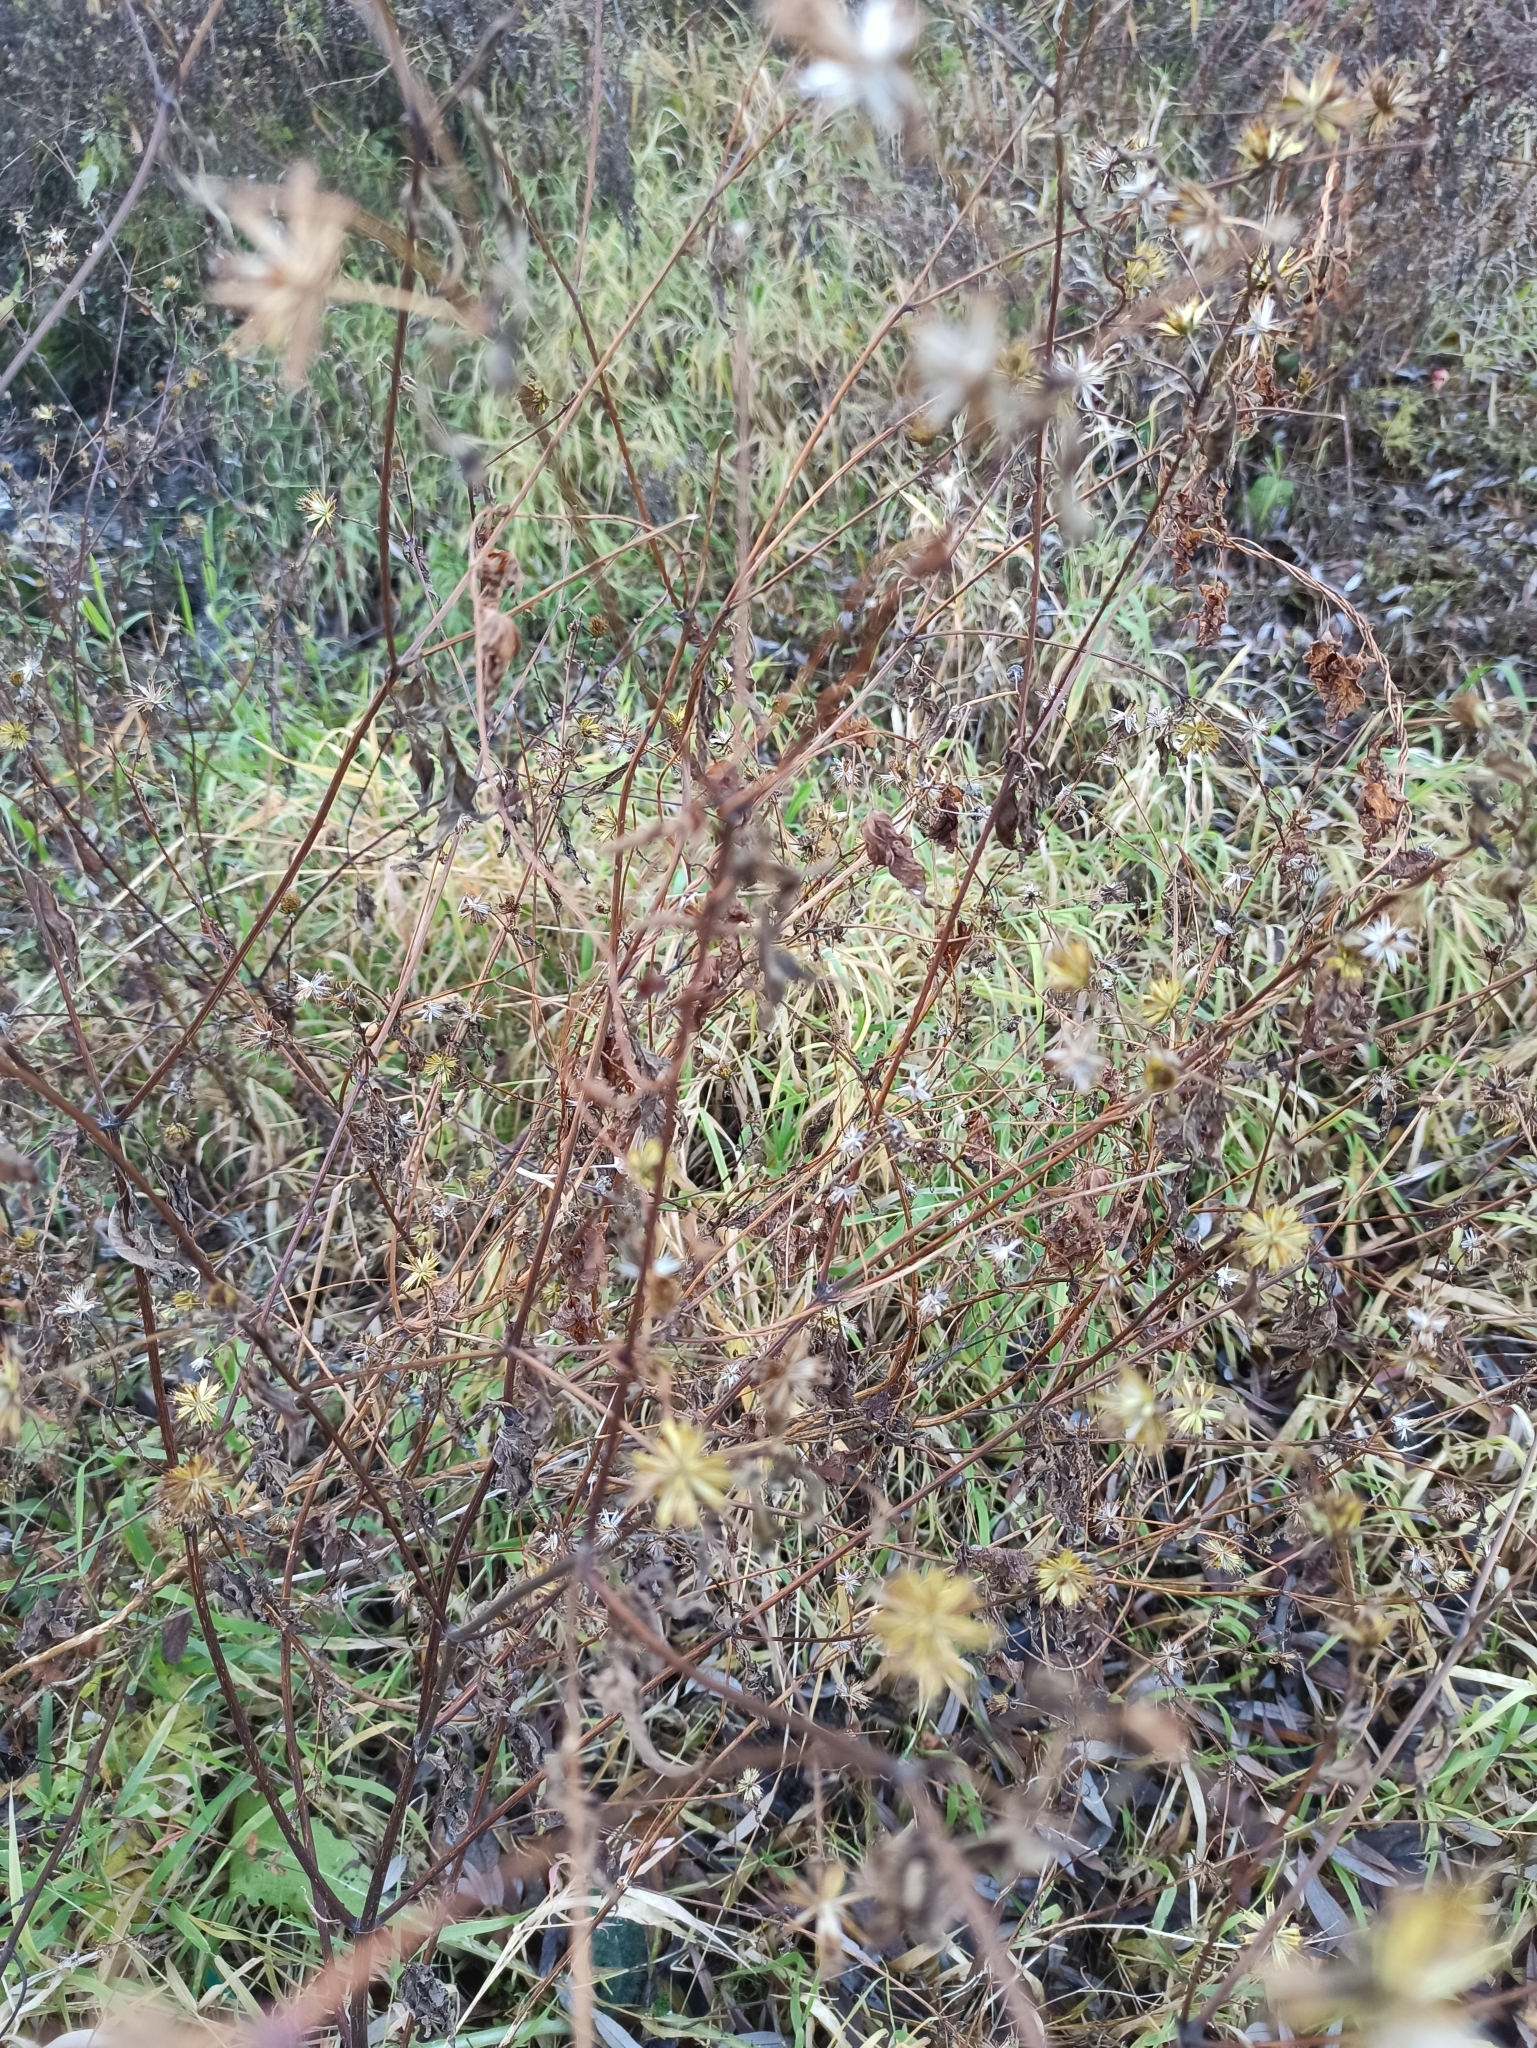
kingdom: Plantae
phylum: Tracheophyta
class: Magnoliopsida
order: Asterales
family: Asteraceae
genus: Bidens
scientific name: Bidens frondosa
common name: Beggarticks
